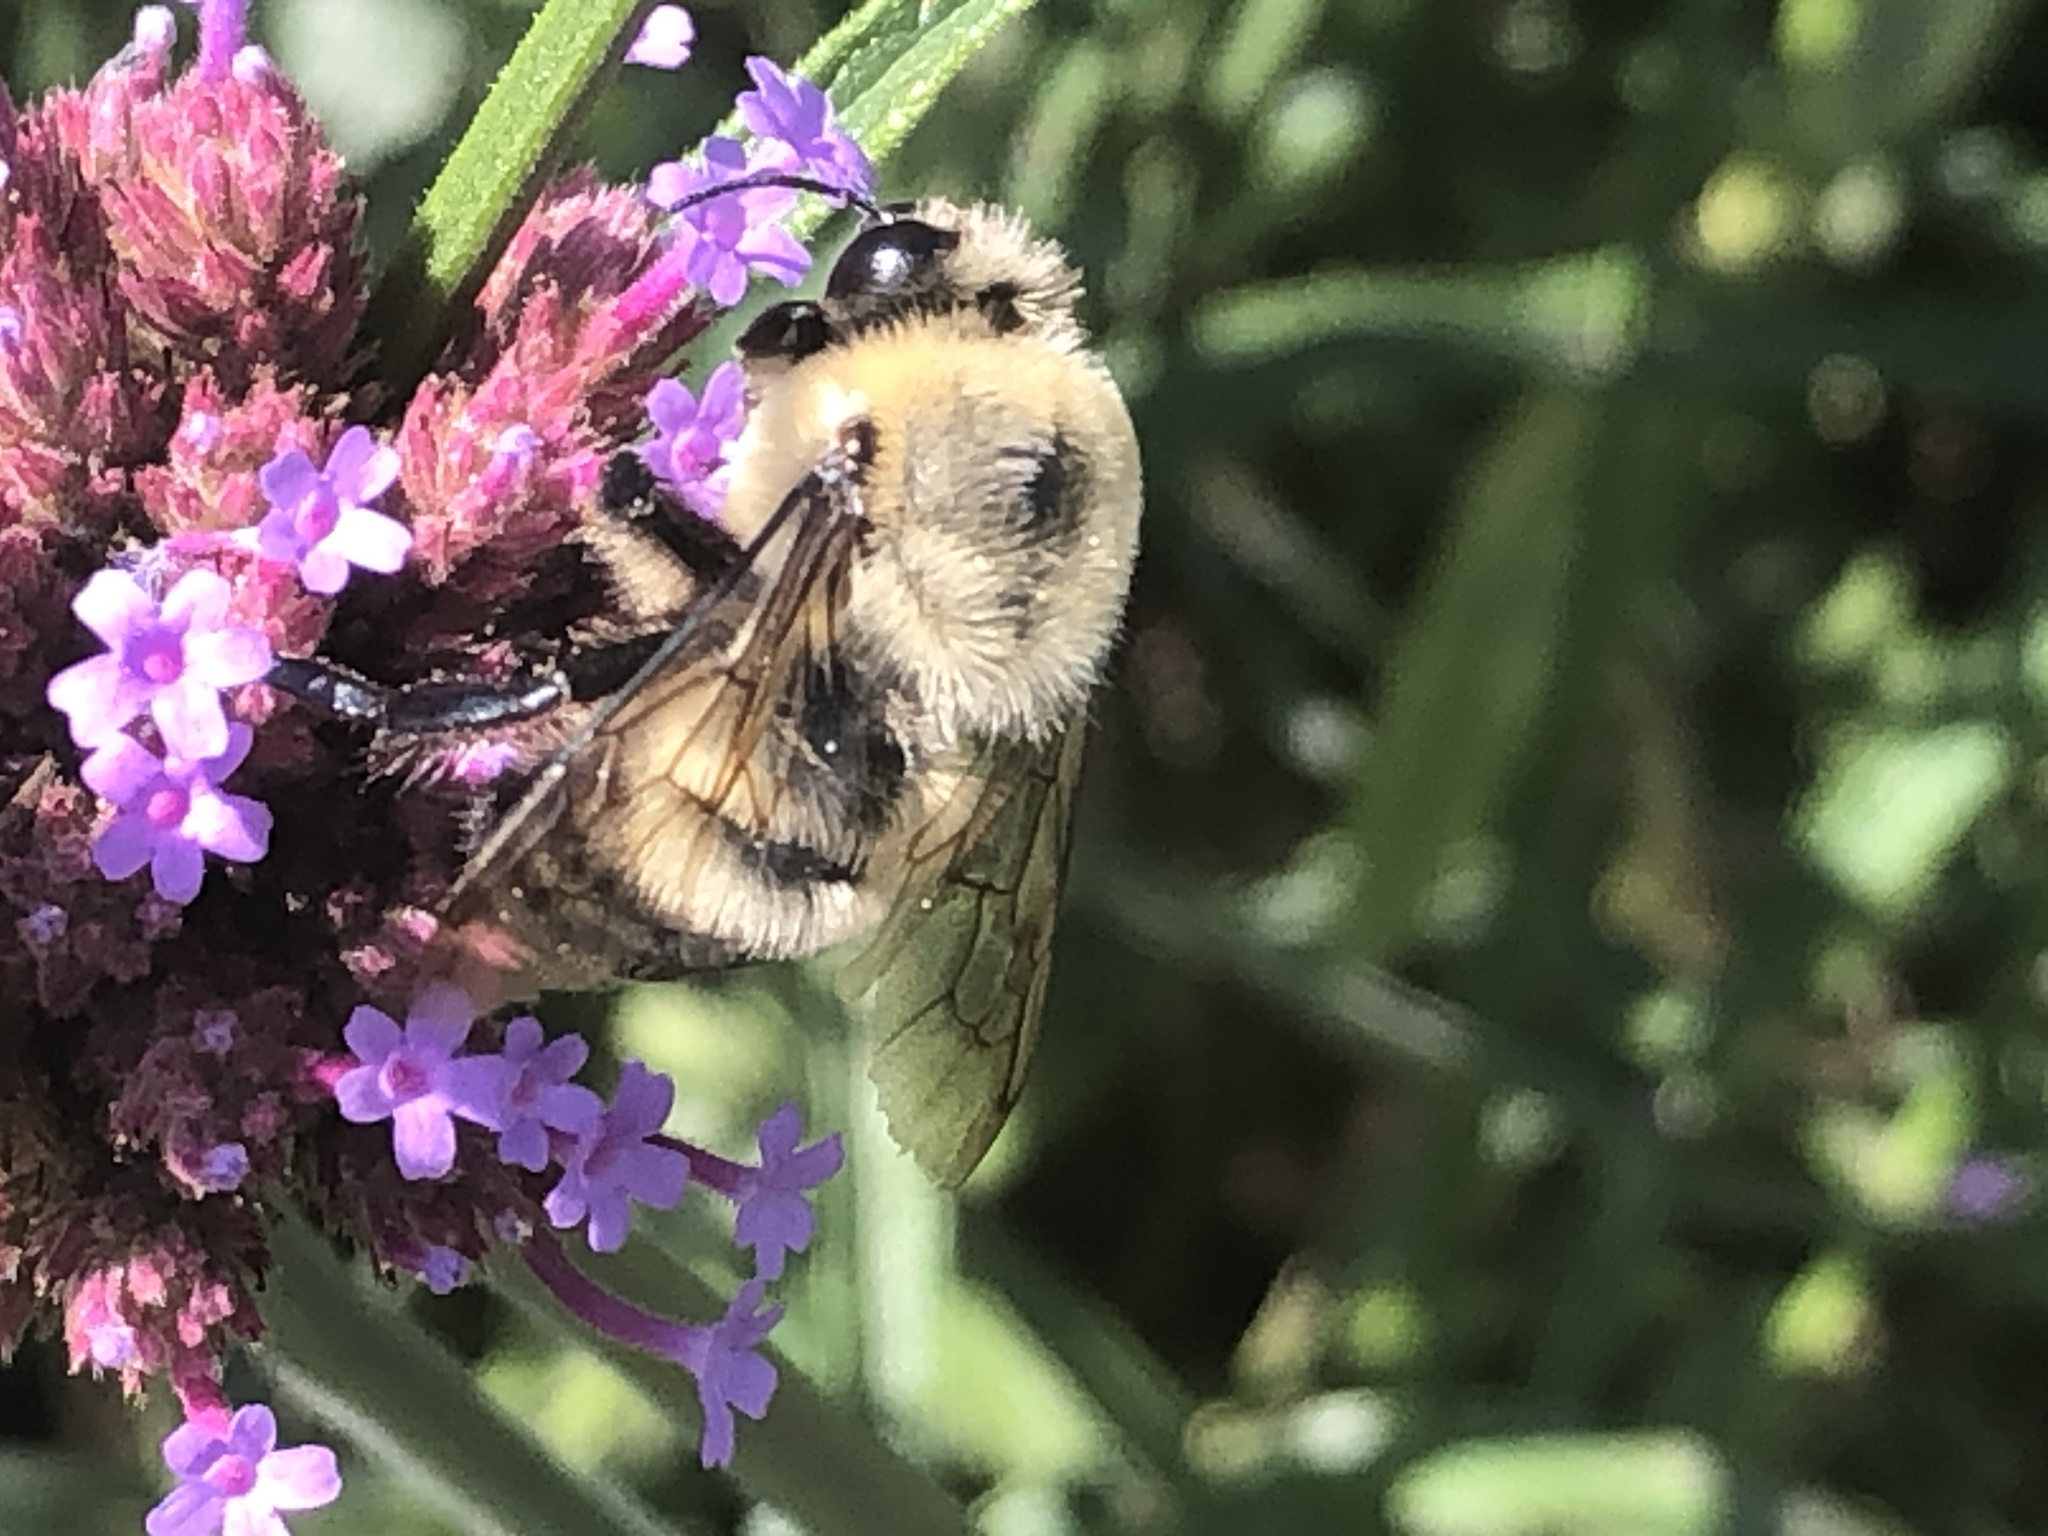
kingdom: Animalia
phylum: Arthropoda
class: Insecta
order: Hymenoptera
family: Apidae
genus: Bombus
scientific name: Bombus griseocollis
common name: Brown-belted bumble bee
